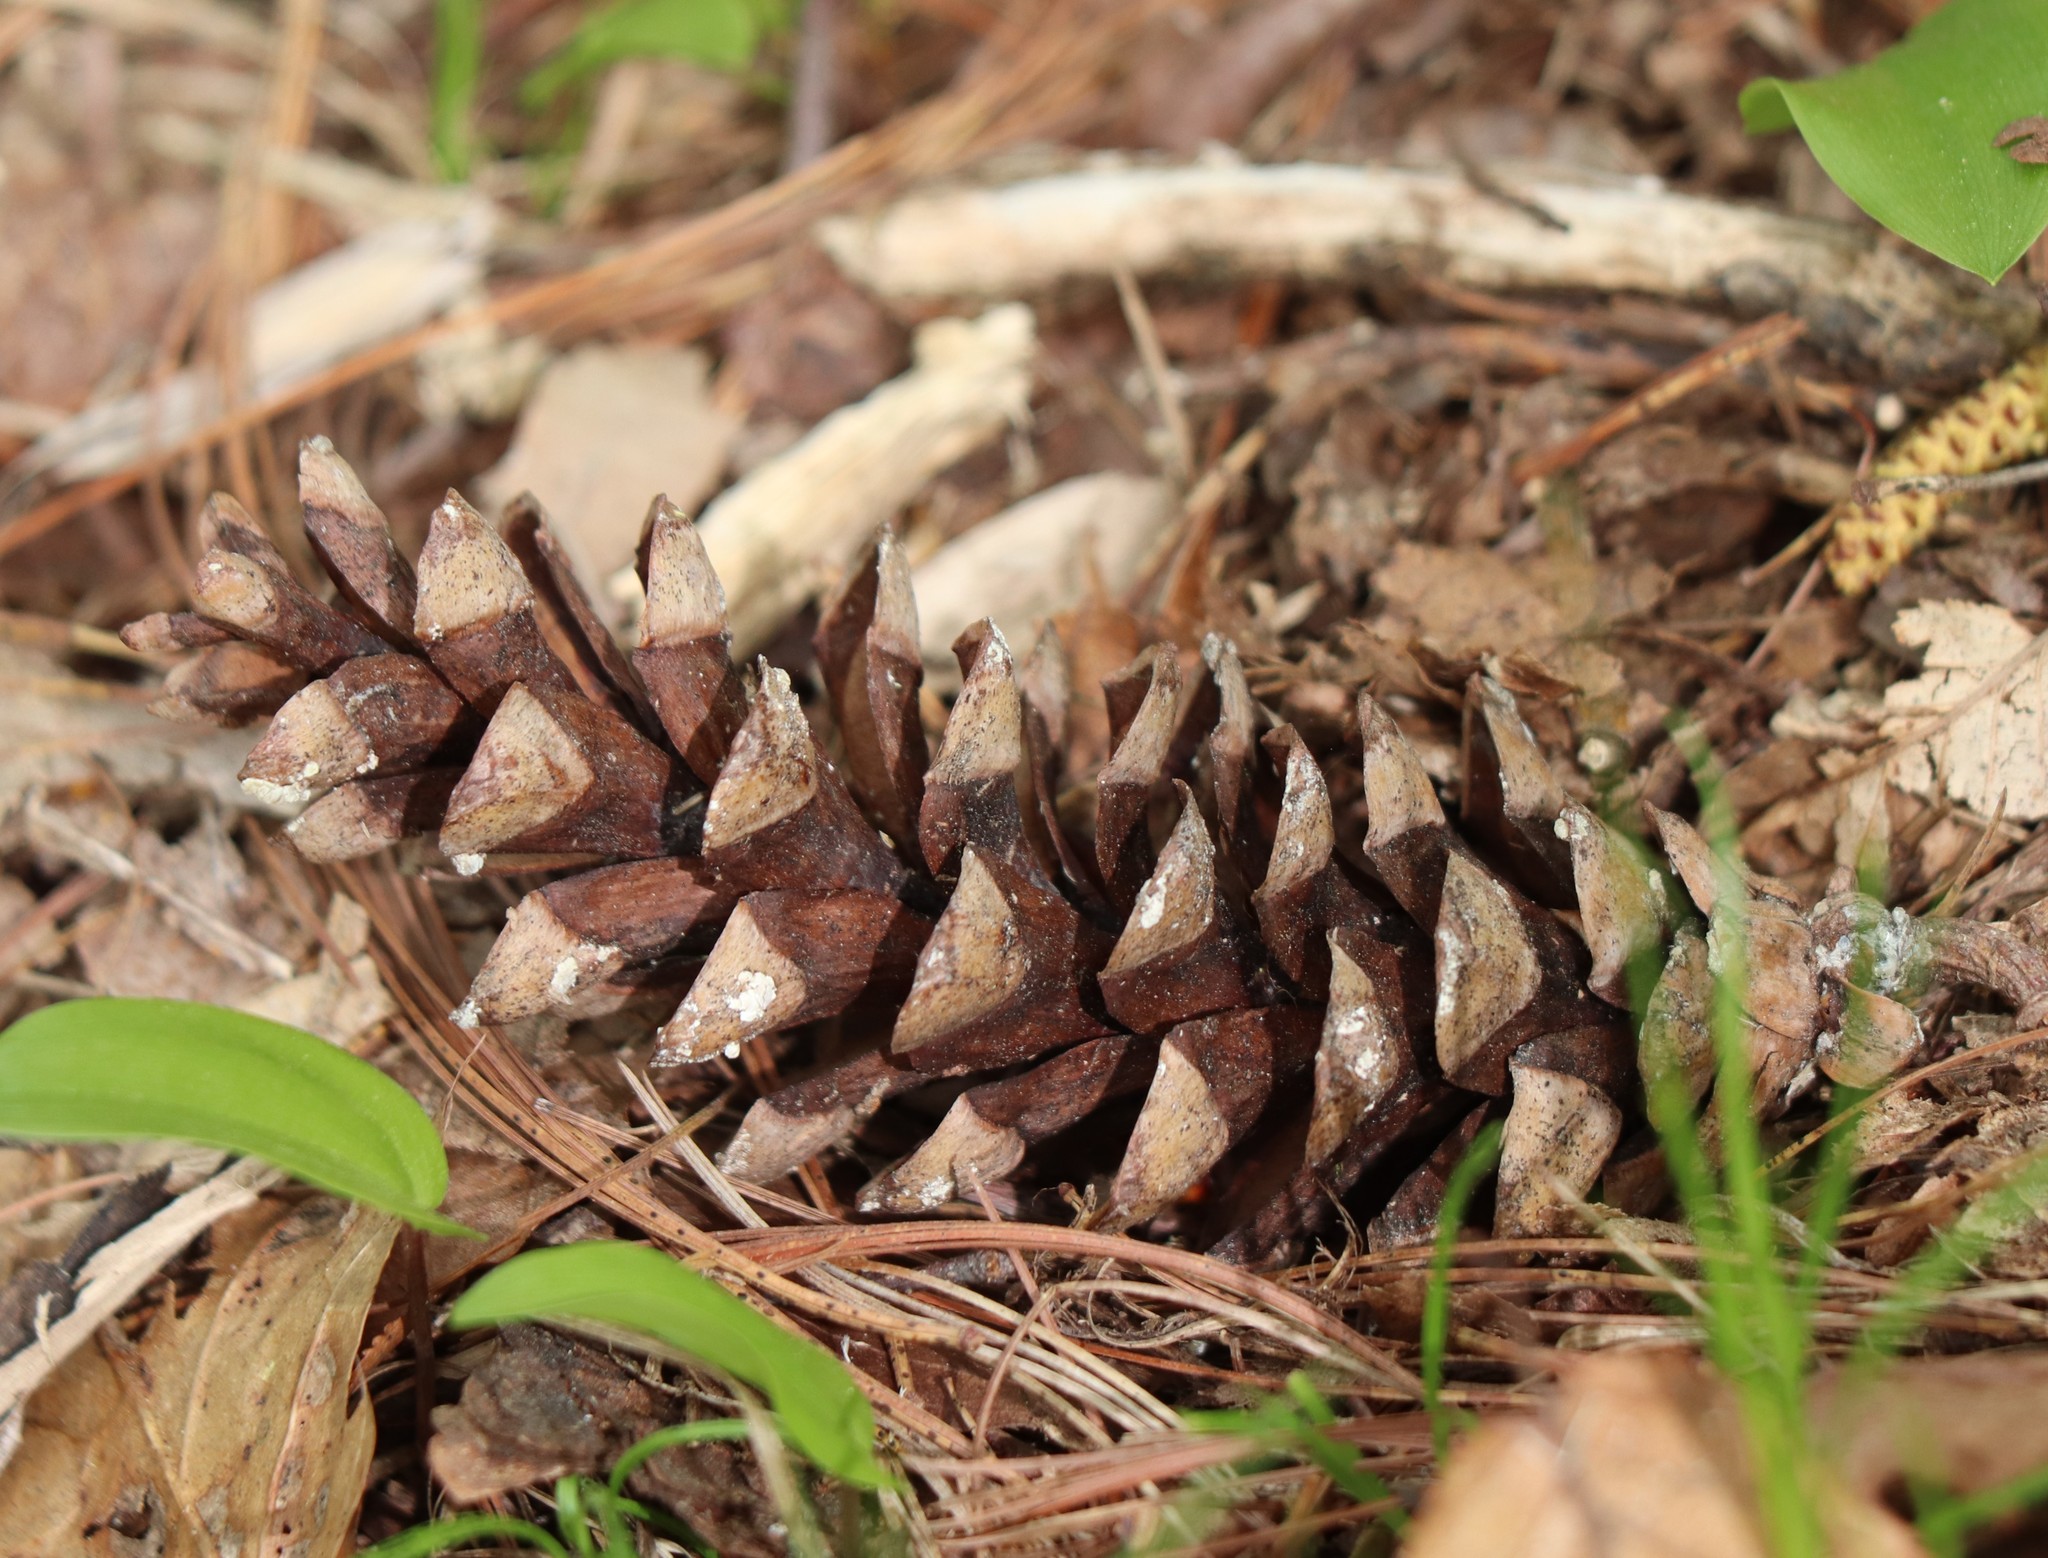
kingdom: Plantae
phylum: Tracheophyta
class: Pinopsida
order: Pinales
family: Pinaceae
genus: Pinus
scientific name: Pinus strobus
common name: Weymouth pine
